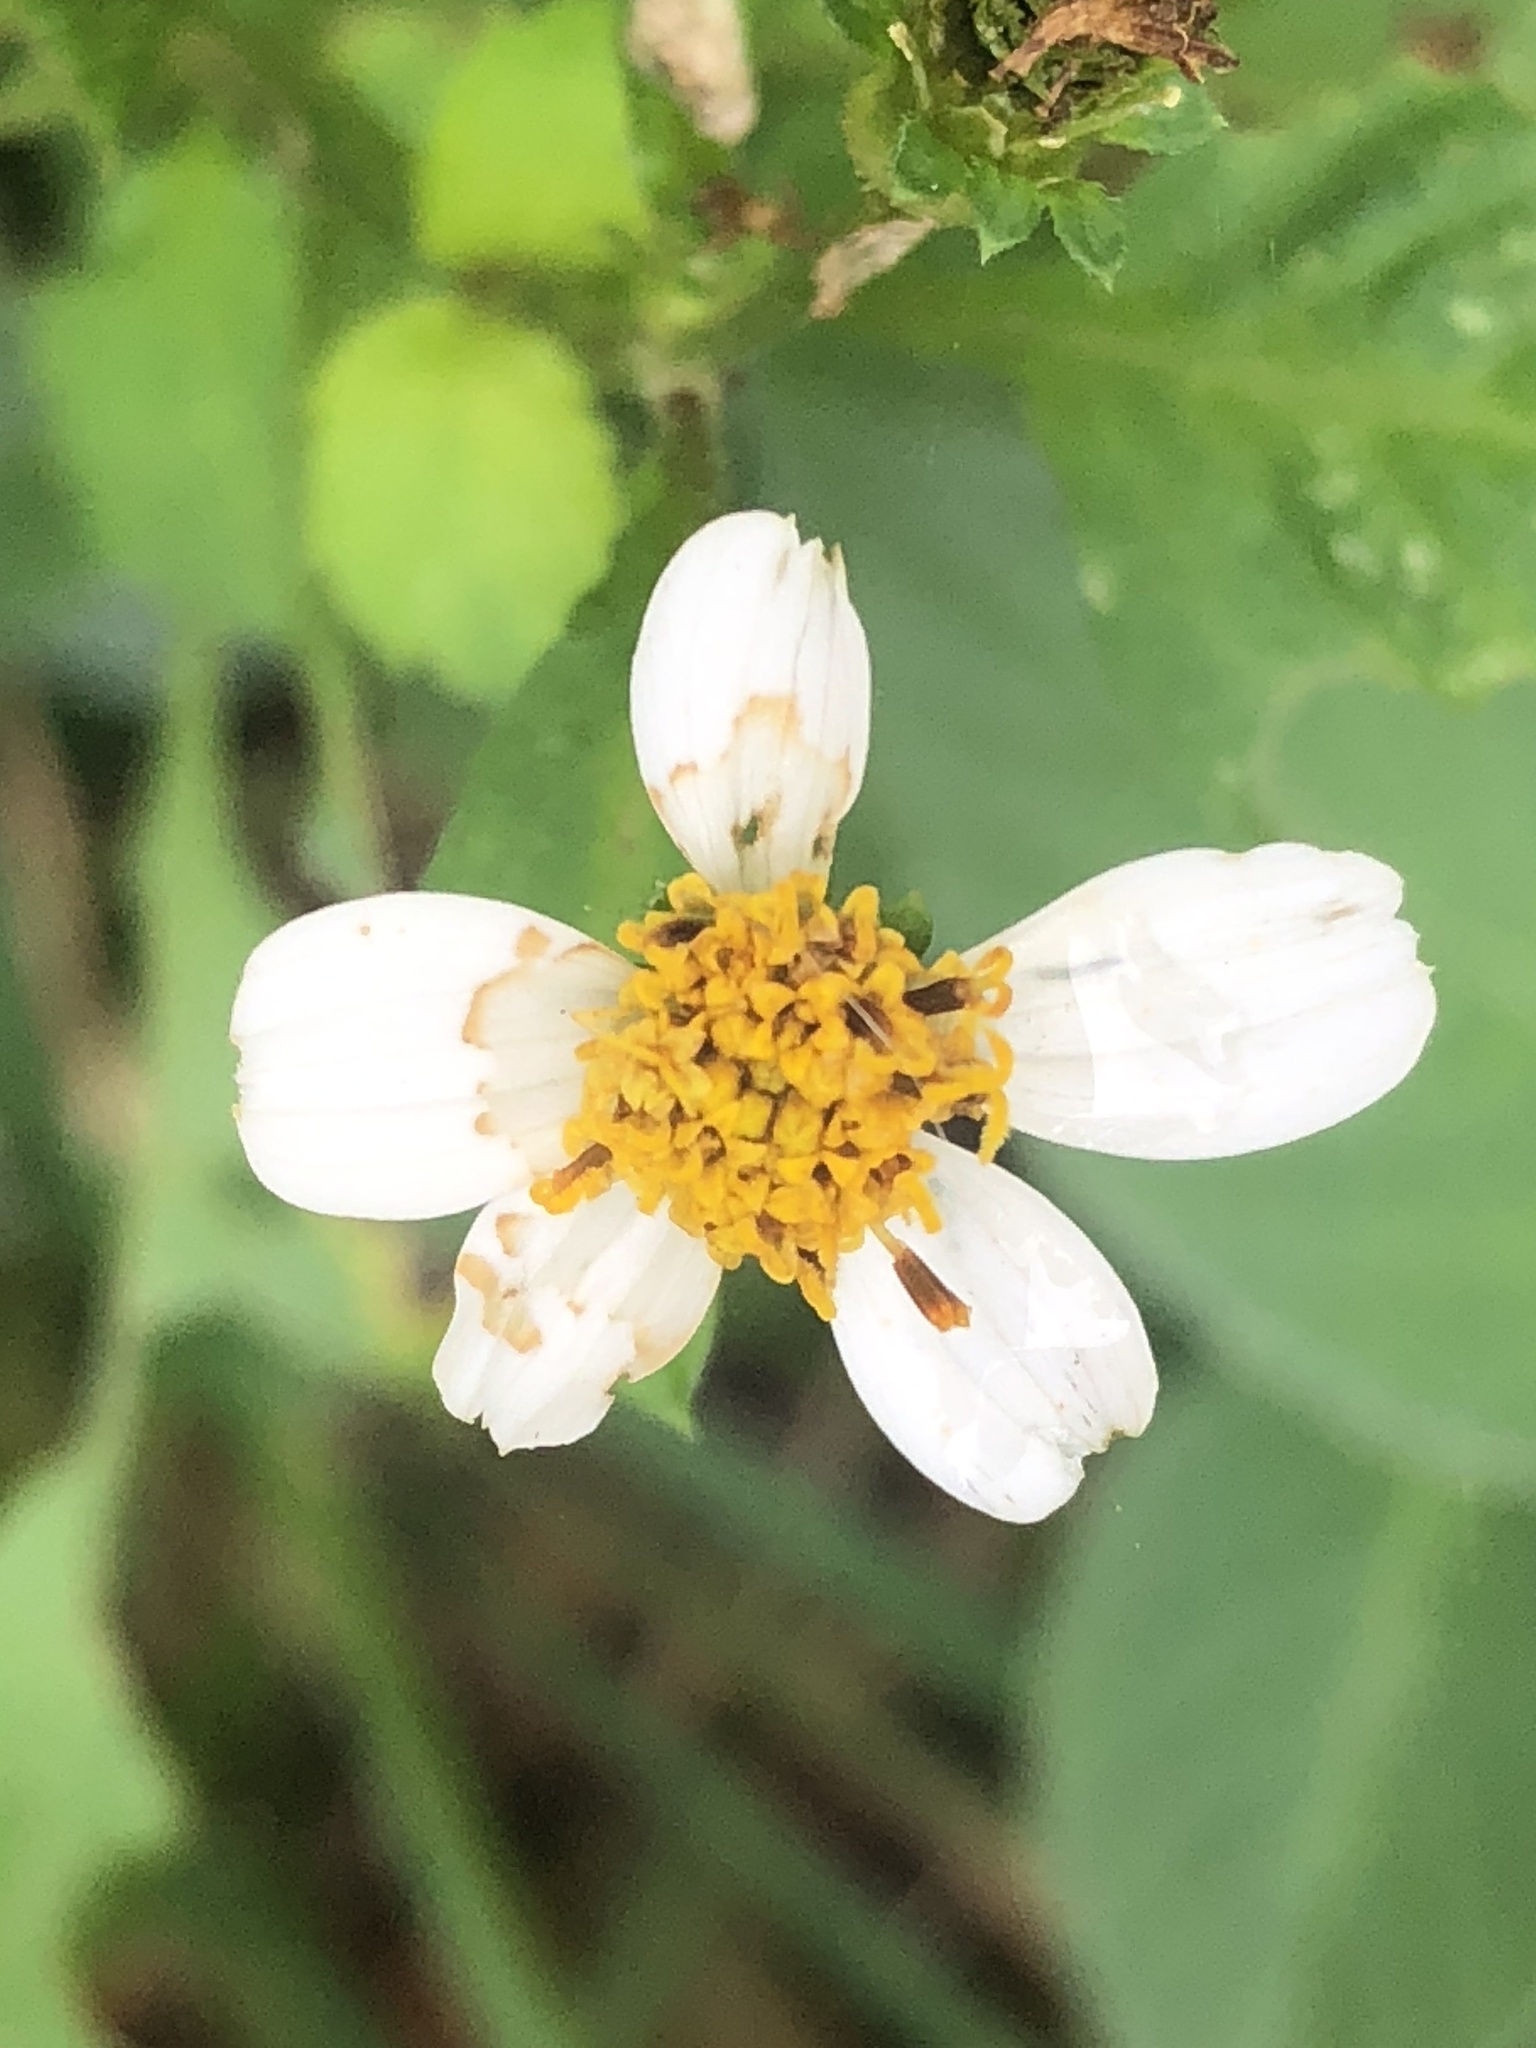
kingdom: Plantae
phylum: Tracheophyta
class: Magnoliopsida
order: Asterales
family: Asteraceae
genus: Bidens
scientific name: Bidens alba
